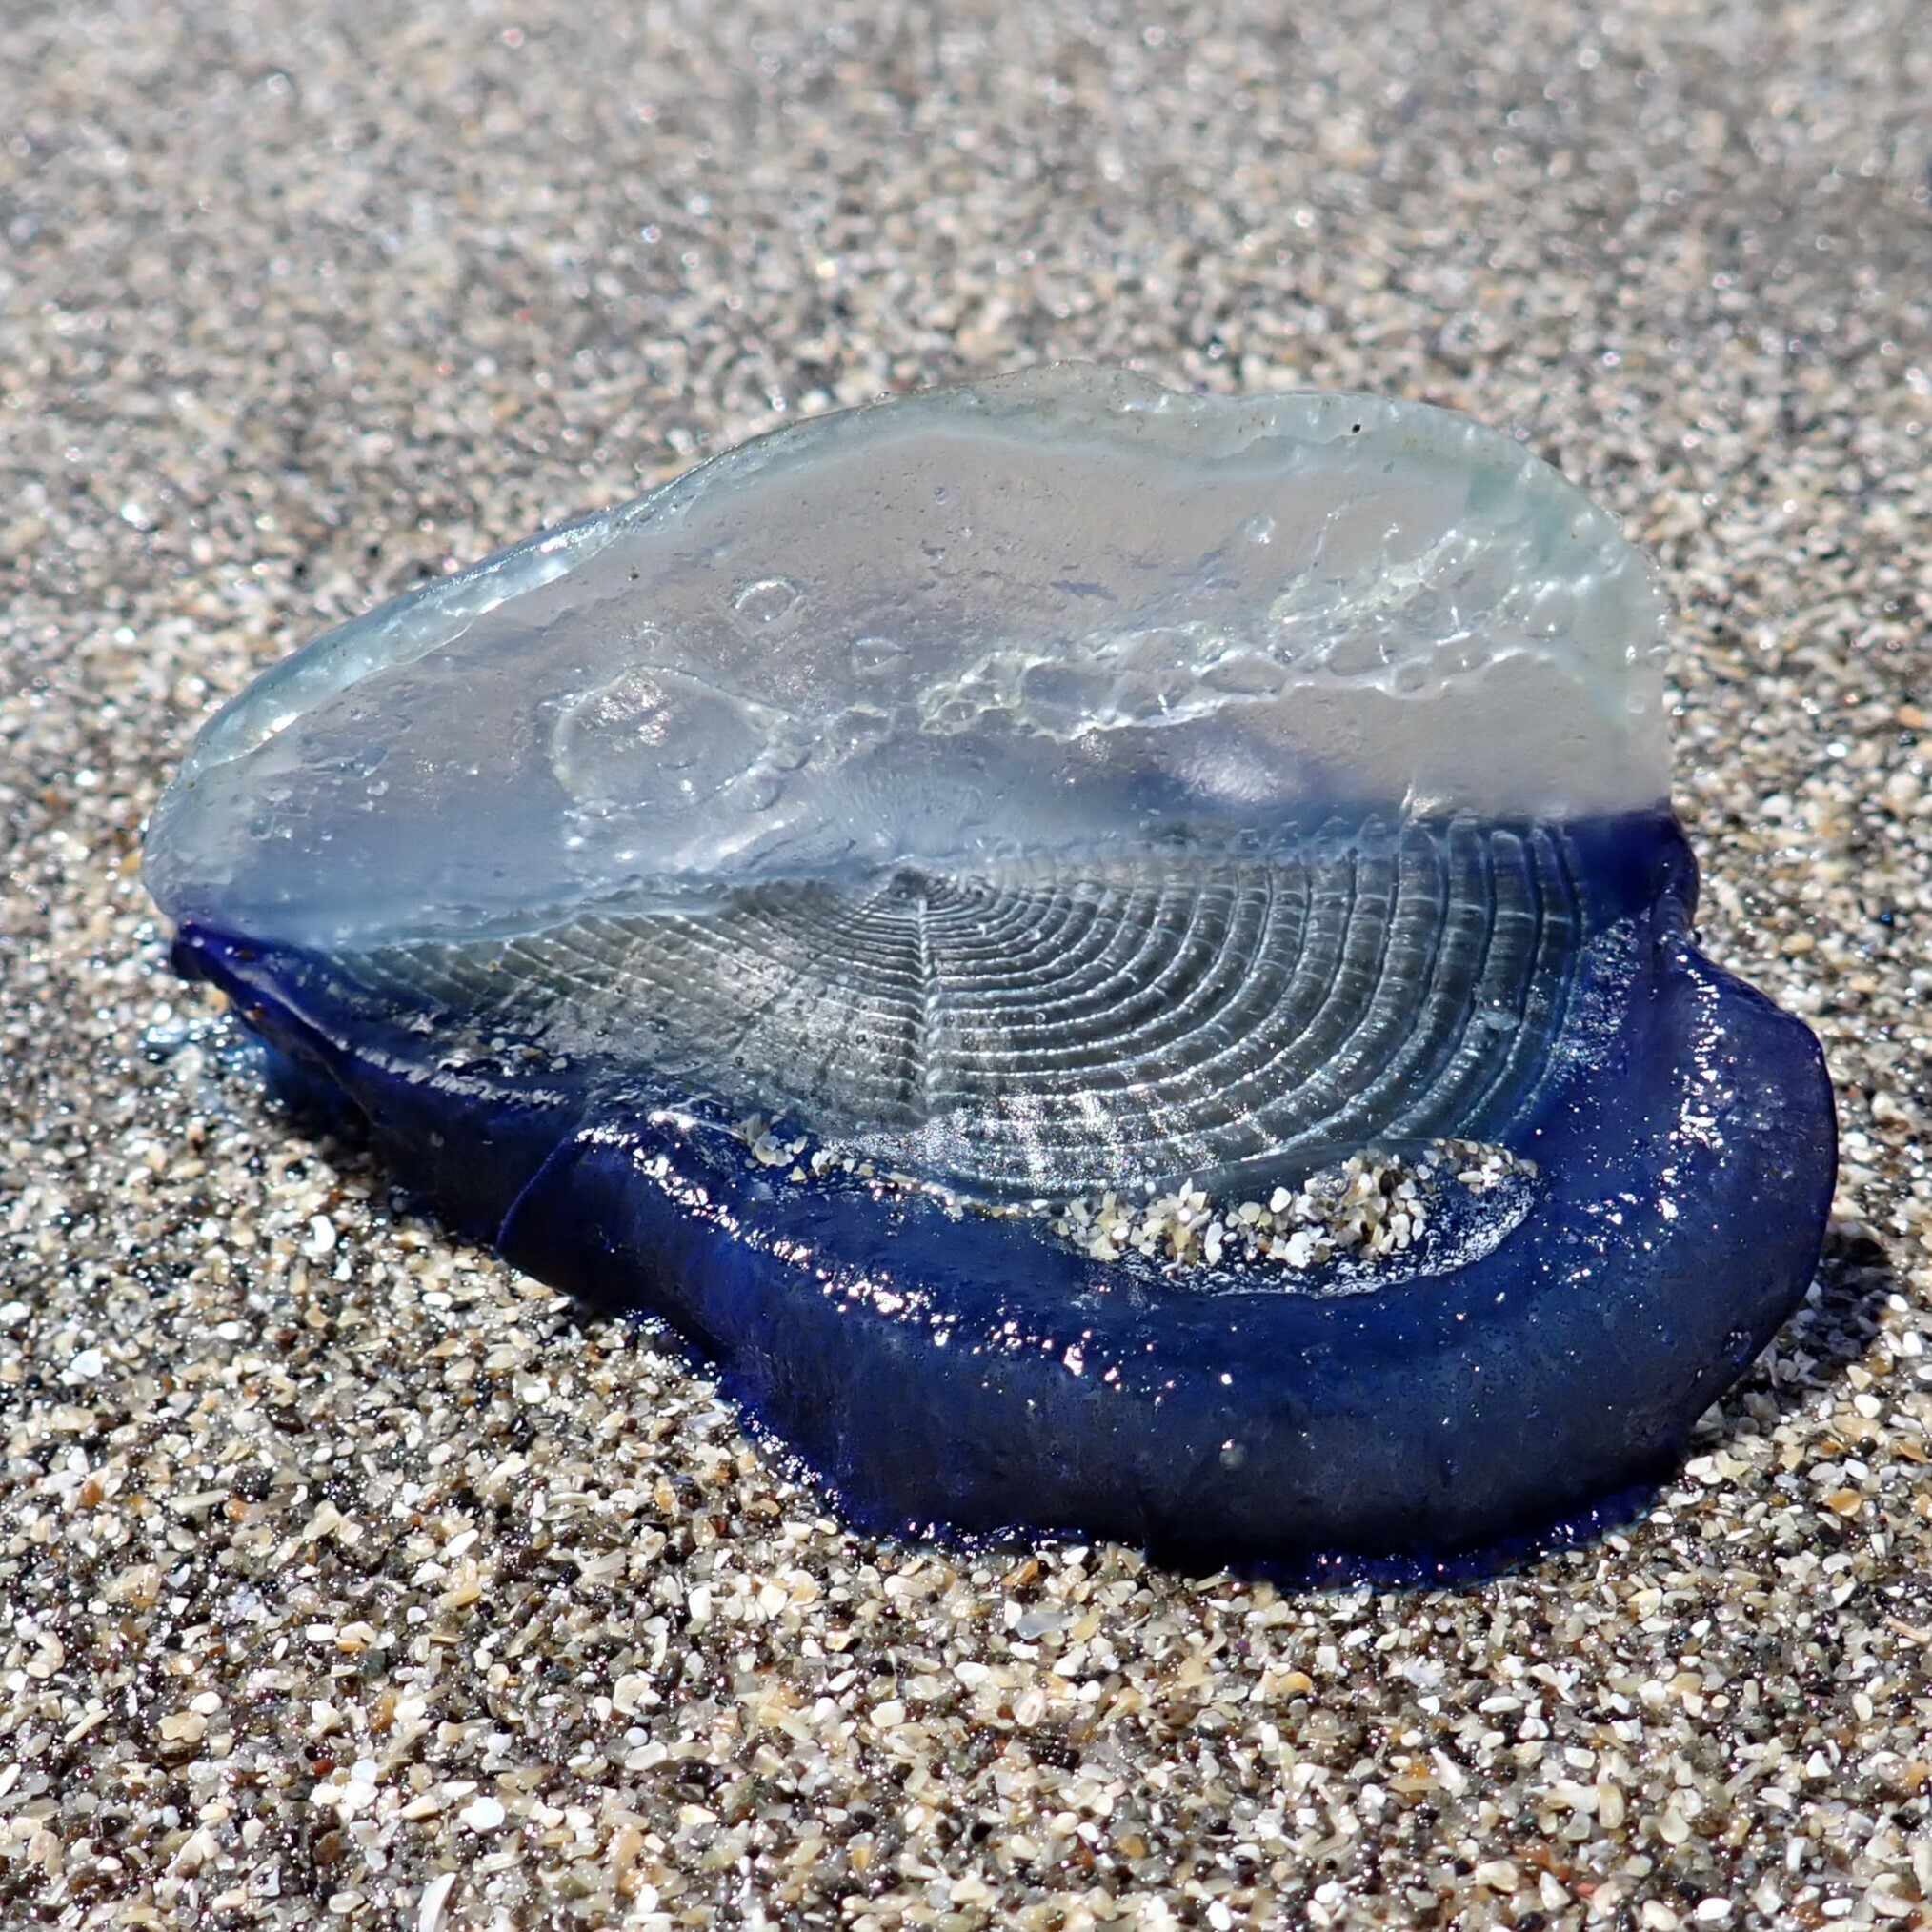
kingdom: Animalia
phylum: Cnidaria
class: Hydrozoa
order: Anthoathecata
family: Porpitidae
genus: Velella
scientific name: Velella velella
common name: By-the-wind-sailor
